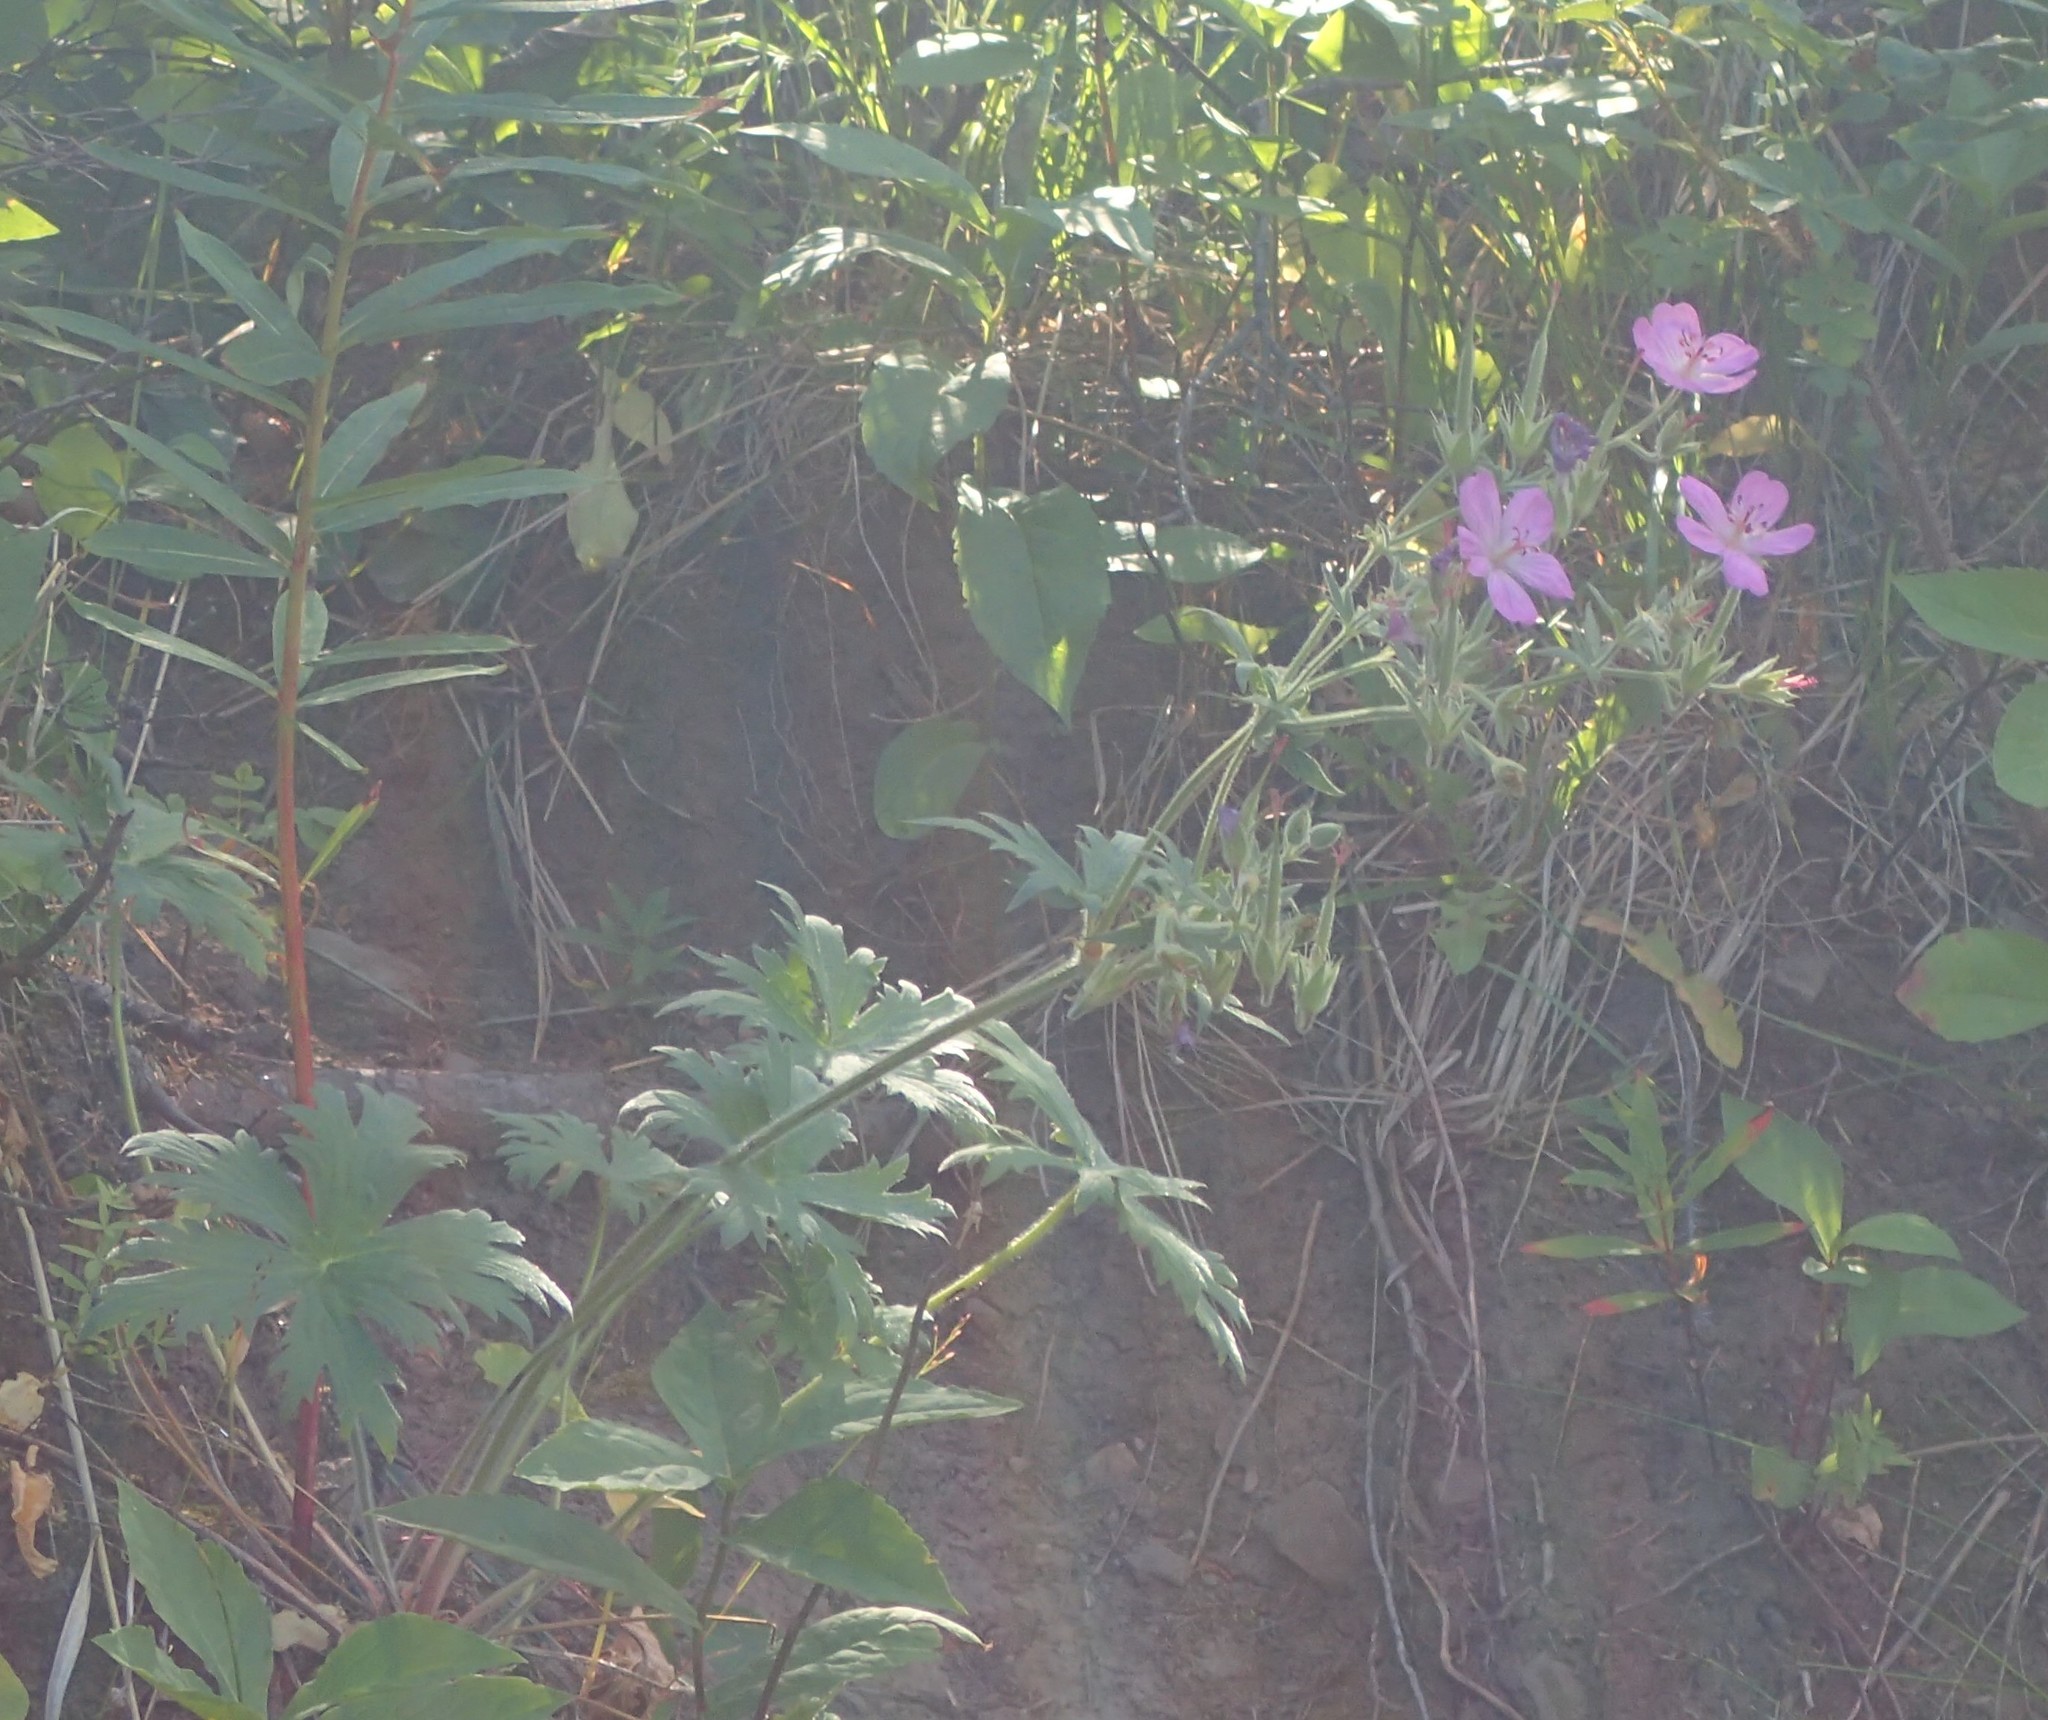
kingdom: Plantae
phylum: Tracheophyta
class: Magnoliopsida
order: Geraniales
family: Geraniaceae
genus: Geranium
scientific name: Geranium viscosissimum
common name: Purple geranium
